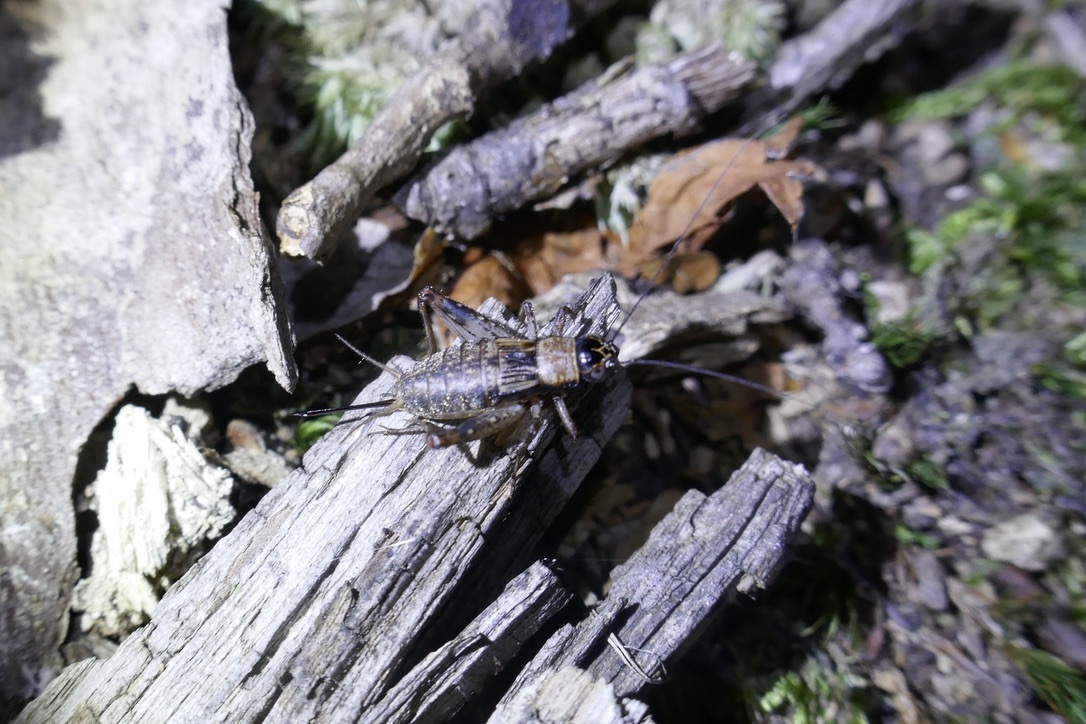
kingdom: Animalia
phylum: Arthropoda
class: Insecta
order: Orthoptera
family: Trigonidiidae
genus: Nemobius
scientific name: Nemobius sylvestris
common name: Wood-cricket
